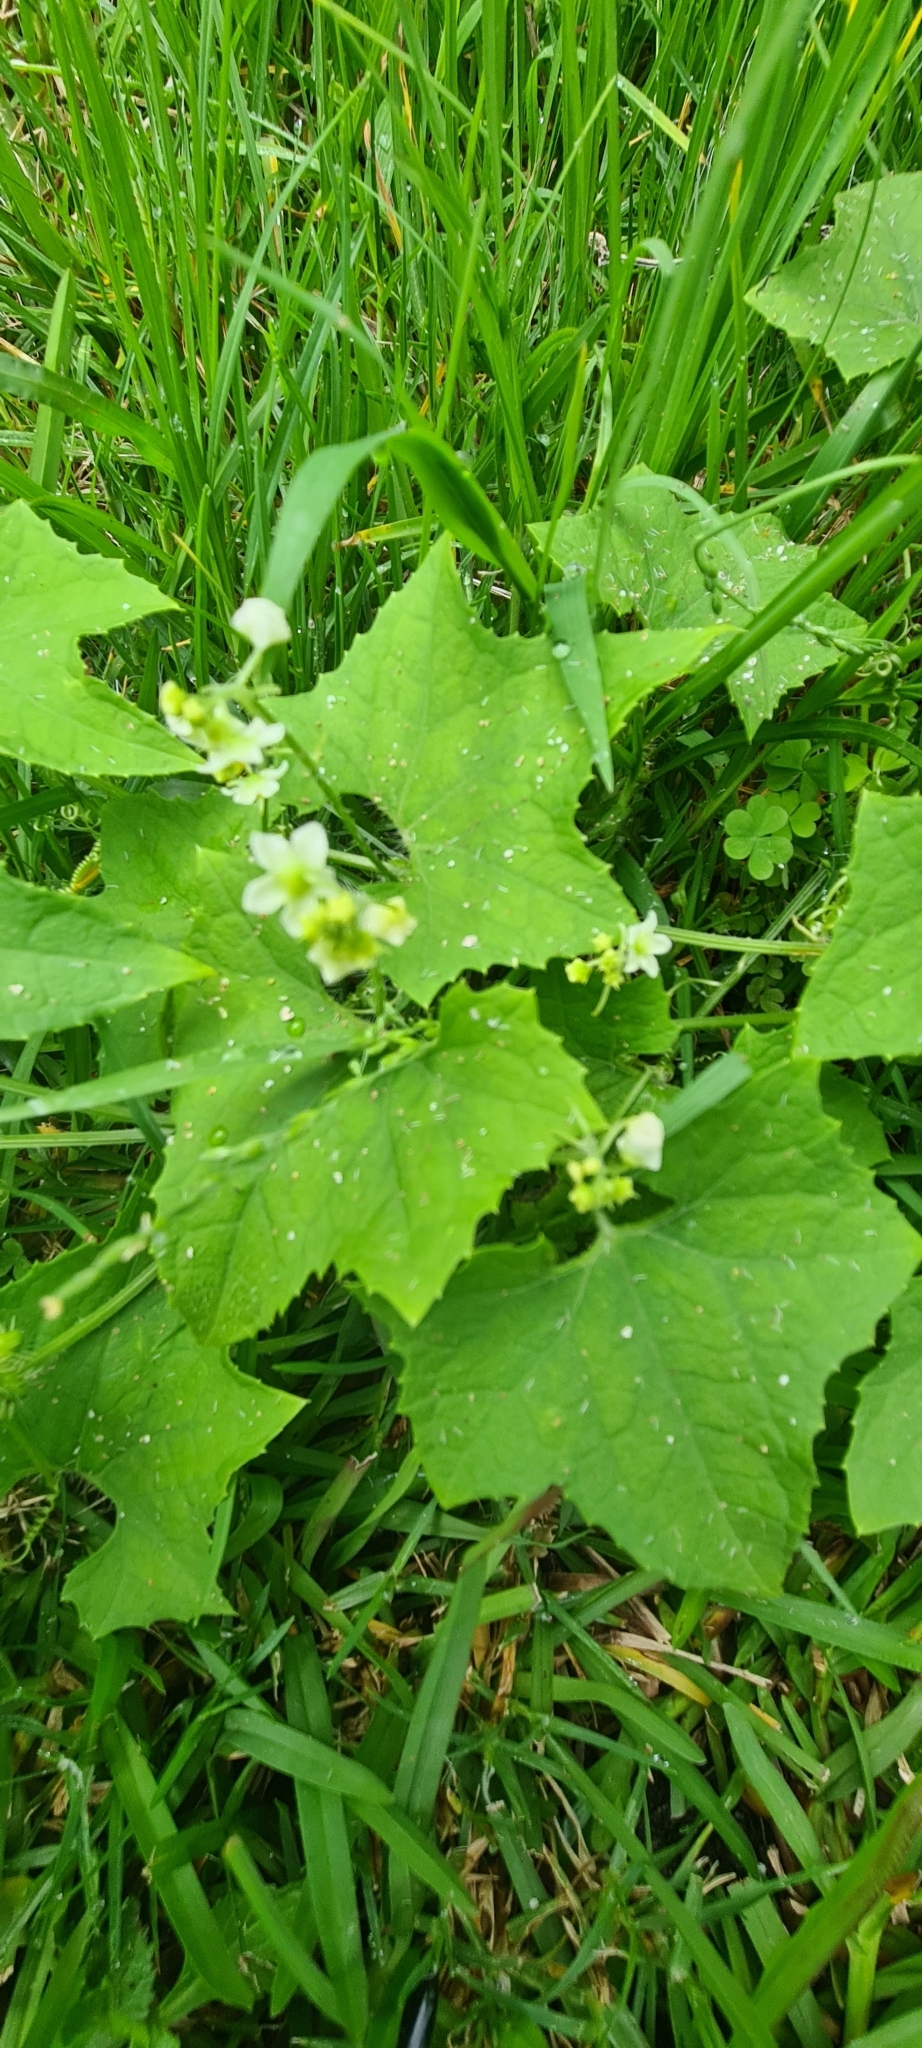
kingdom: Plantae
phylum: Tracheophyta
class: Magnoliopsida
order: Cucurbitales
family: Cucurbitaceae
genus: Sicyos
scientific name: Sicyos australis
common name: Angle-cucumber
